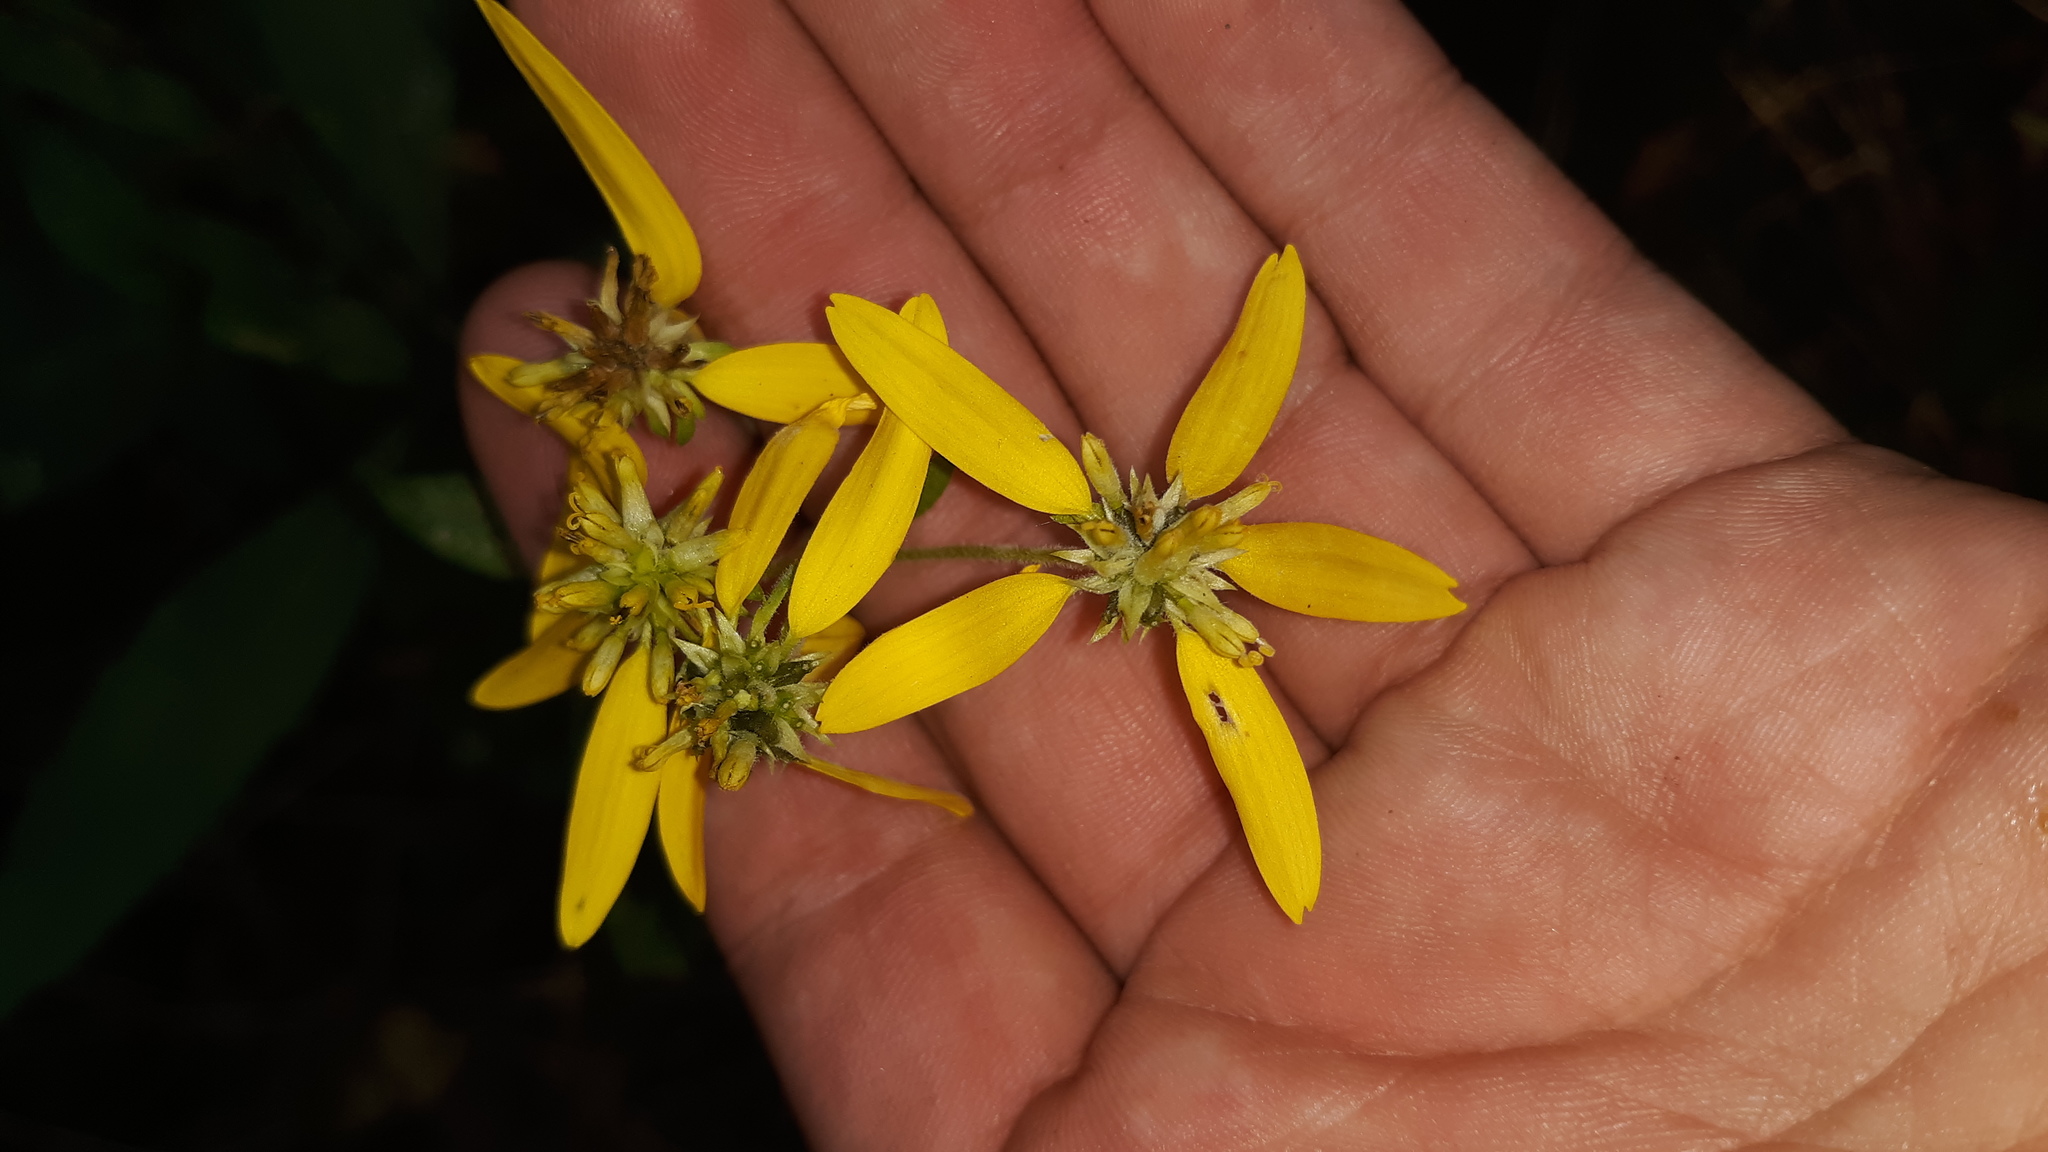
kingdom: Plantae
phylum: Tracheophyta
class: Magnoliopsida
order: Asterales
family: Asteraceae
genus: Verbesina
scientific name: Verbesina alternifolia
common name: Wingstem
